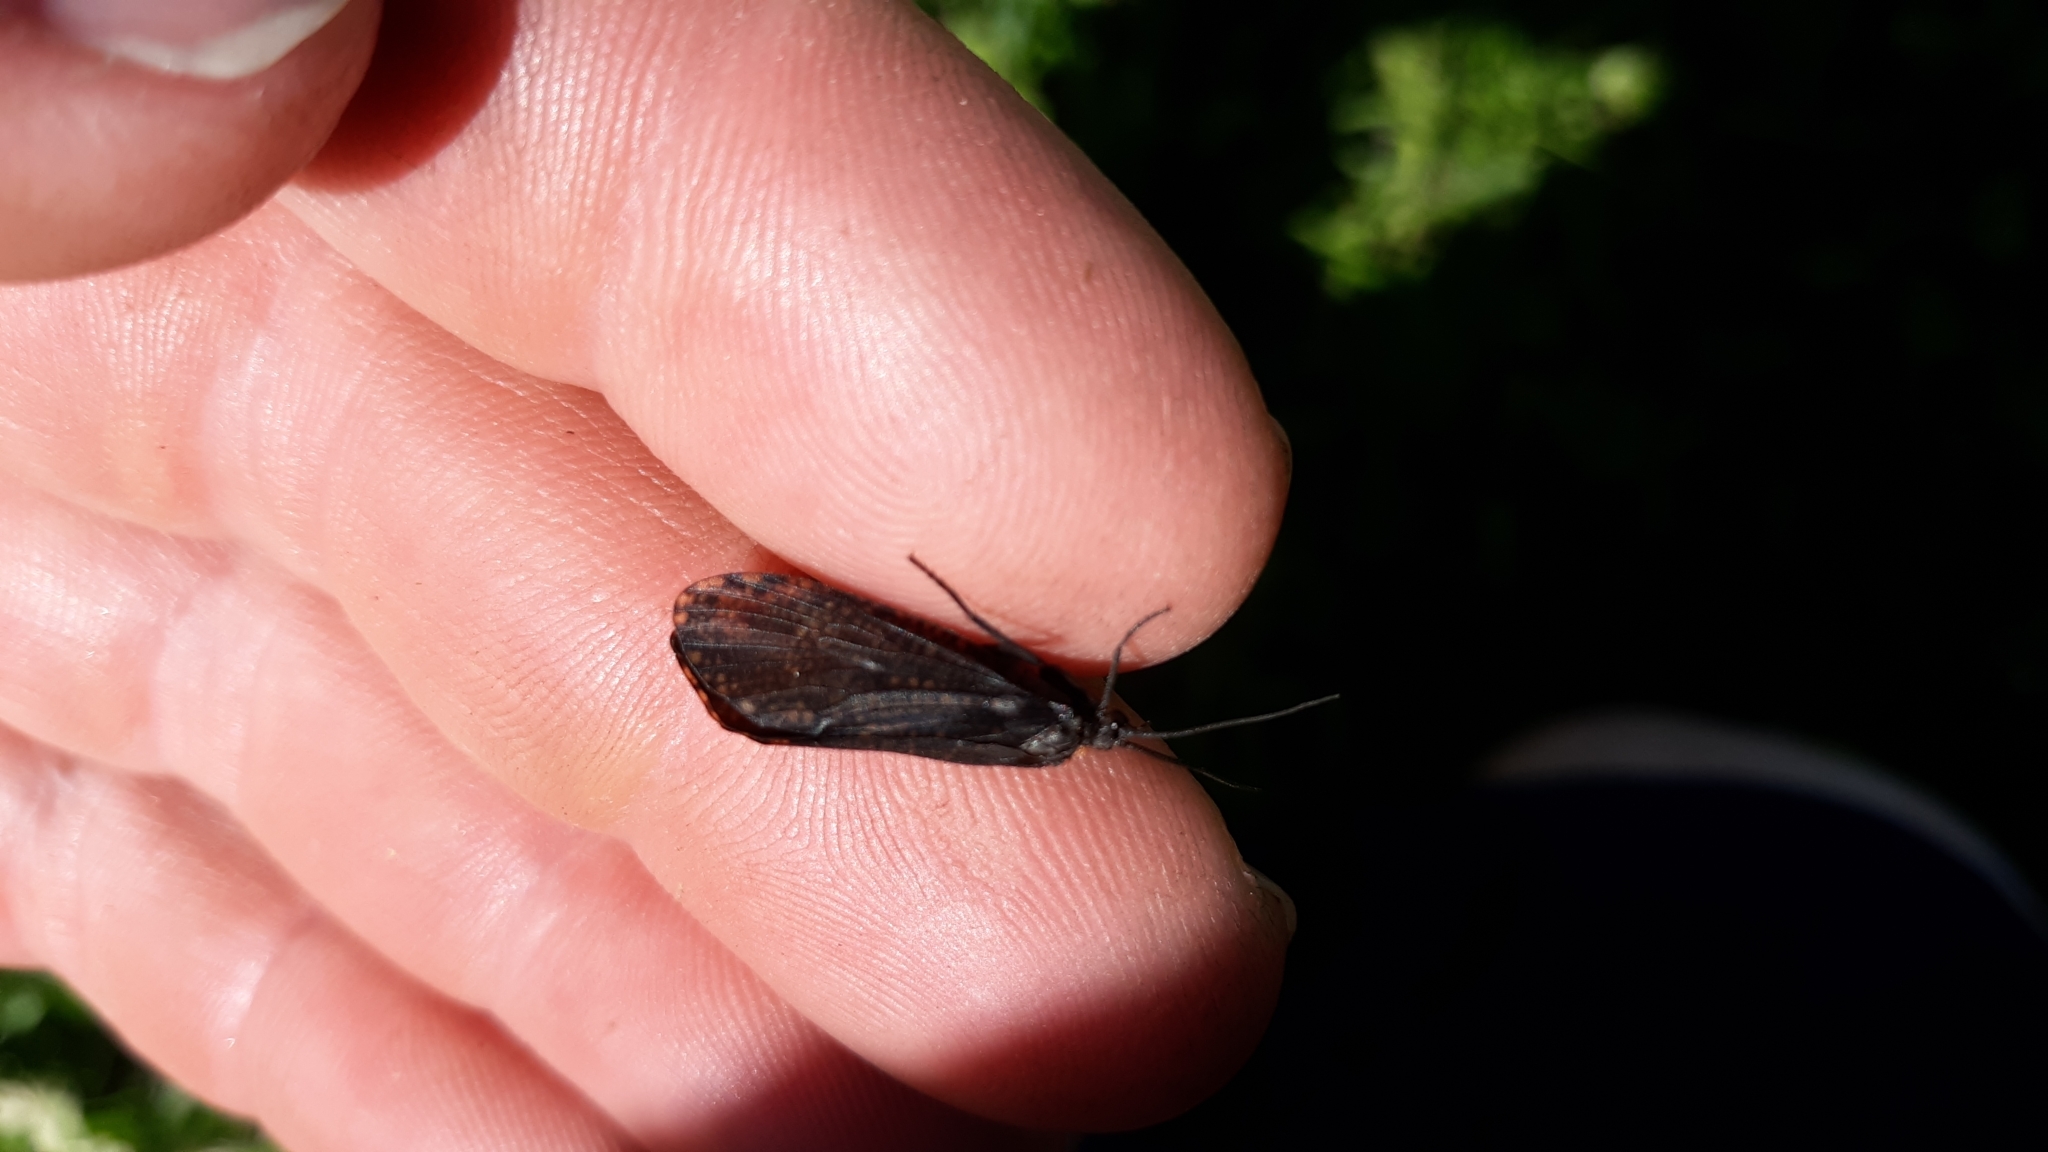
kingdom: Animalia
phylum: Arthropoda
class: Insecta
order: Trichoptera
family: Phryganeidae
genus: Oligostomis
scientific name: Oligostomis ocelligera
